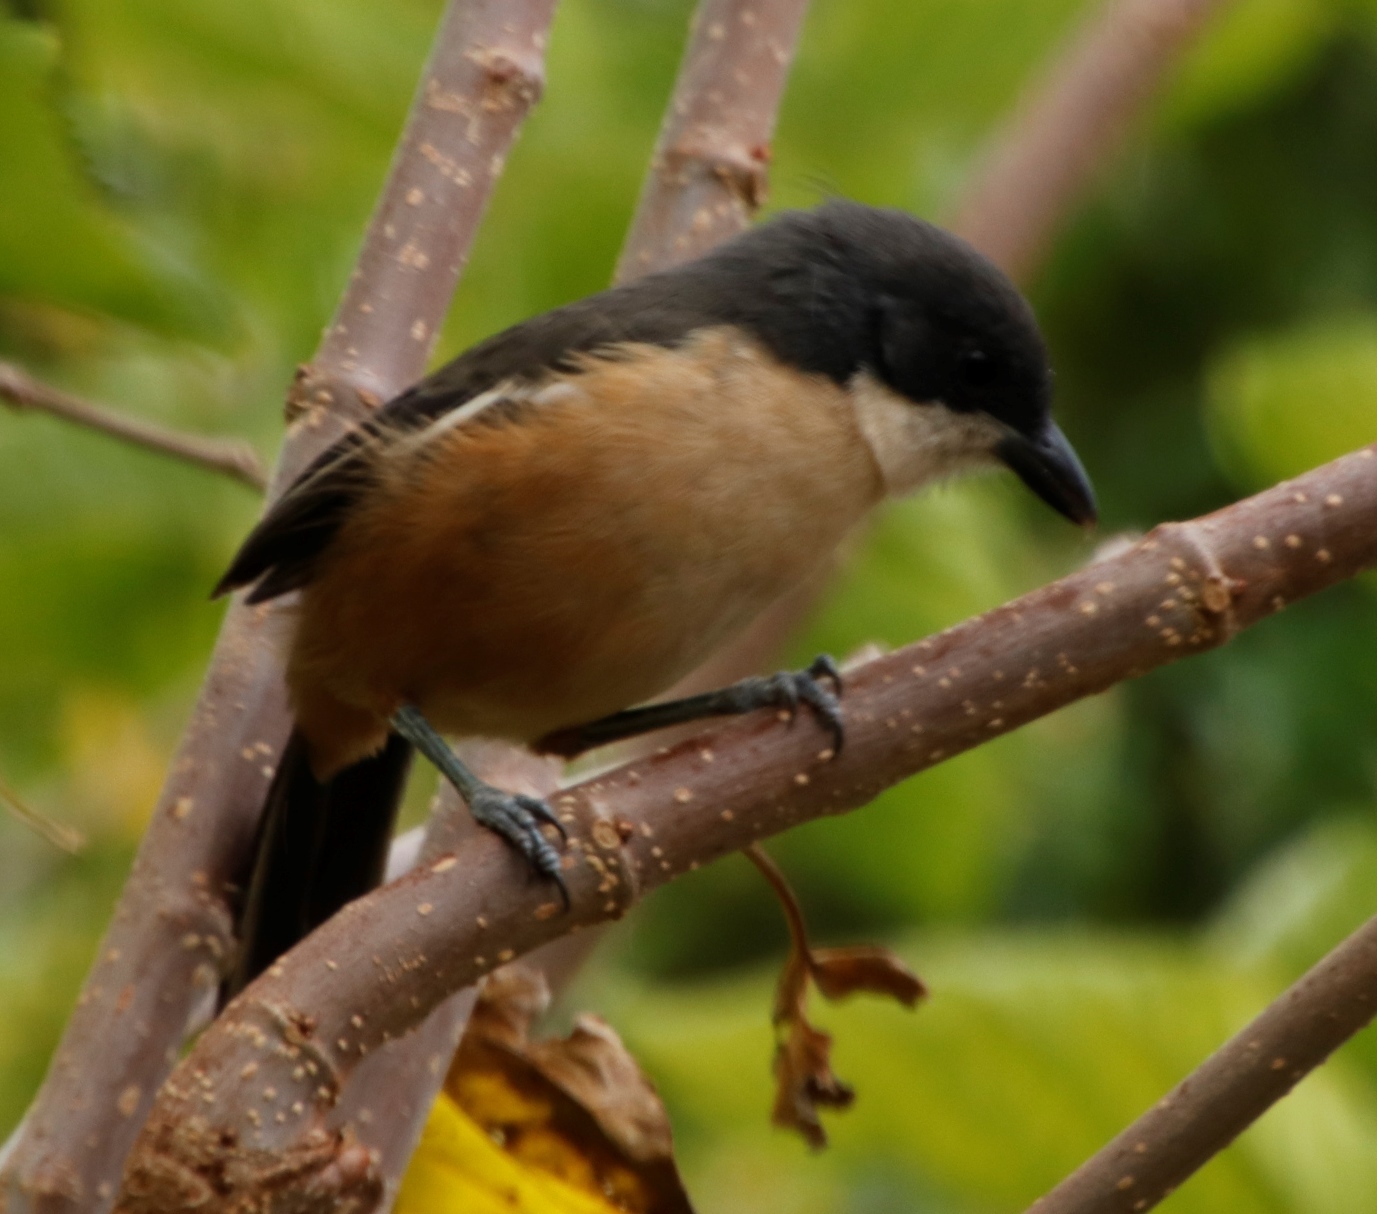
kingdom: Animalia
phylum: Chordata
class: Aves
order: Passeriformes
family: Malaconotidae
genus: Laniarius
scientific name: Laniarius ferrugineus
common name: Southern boubou
